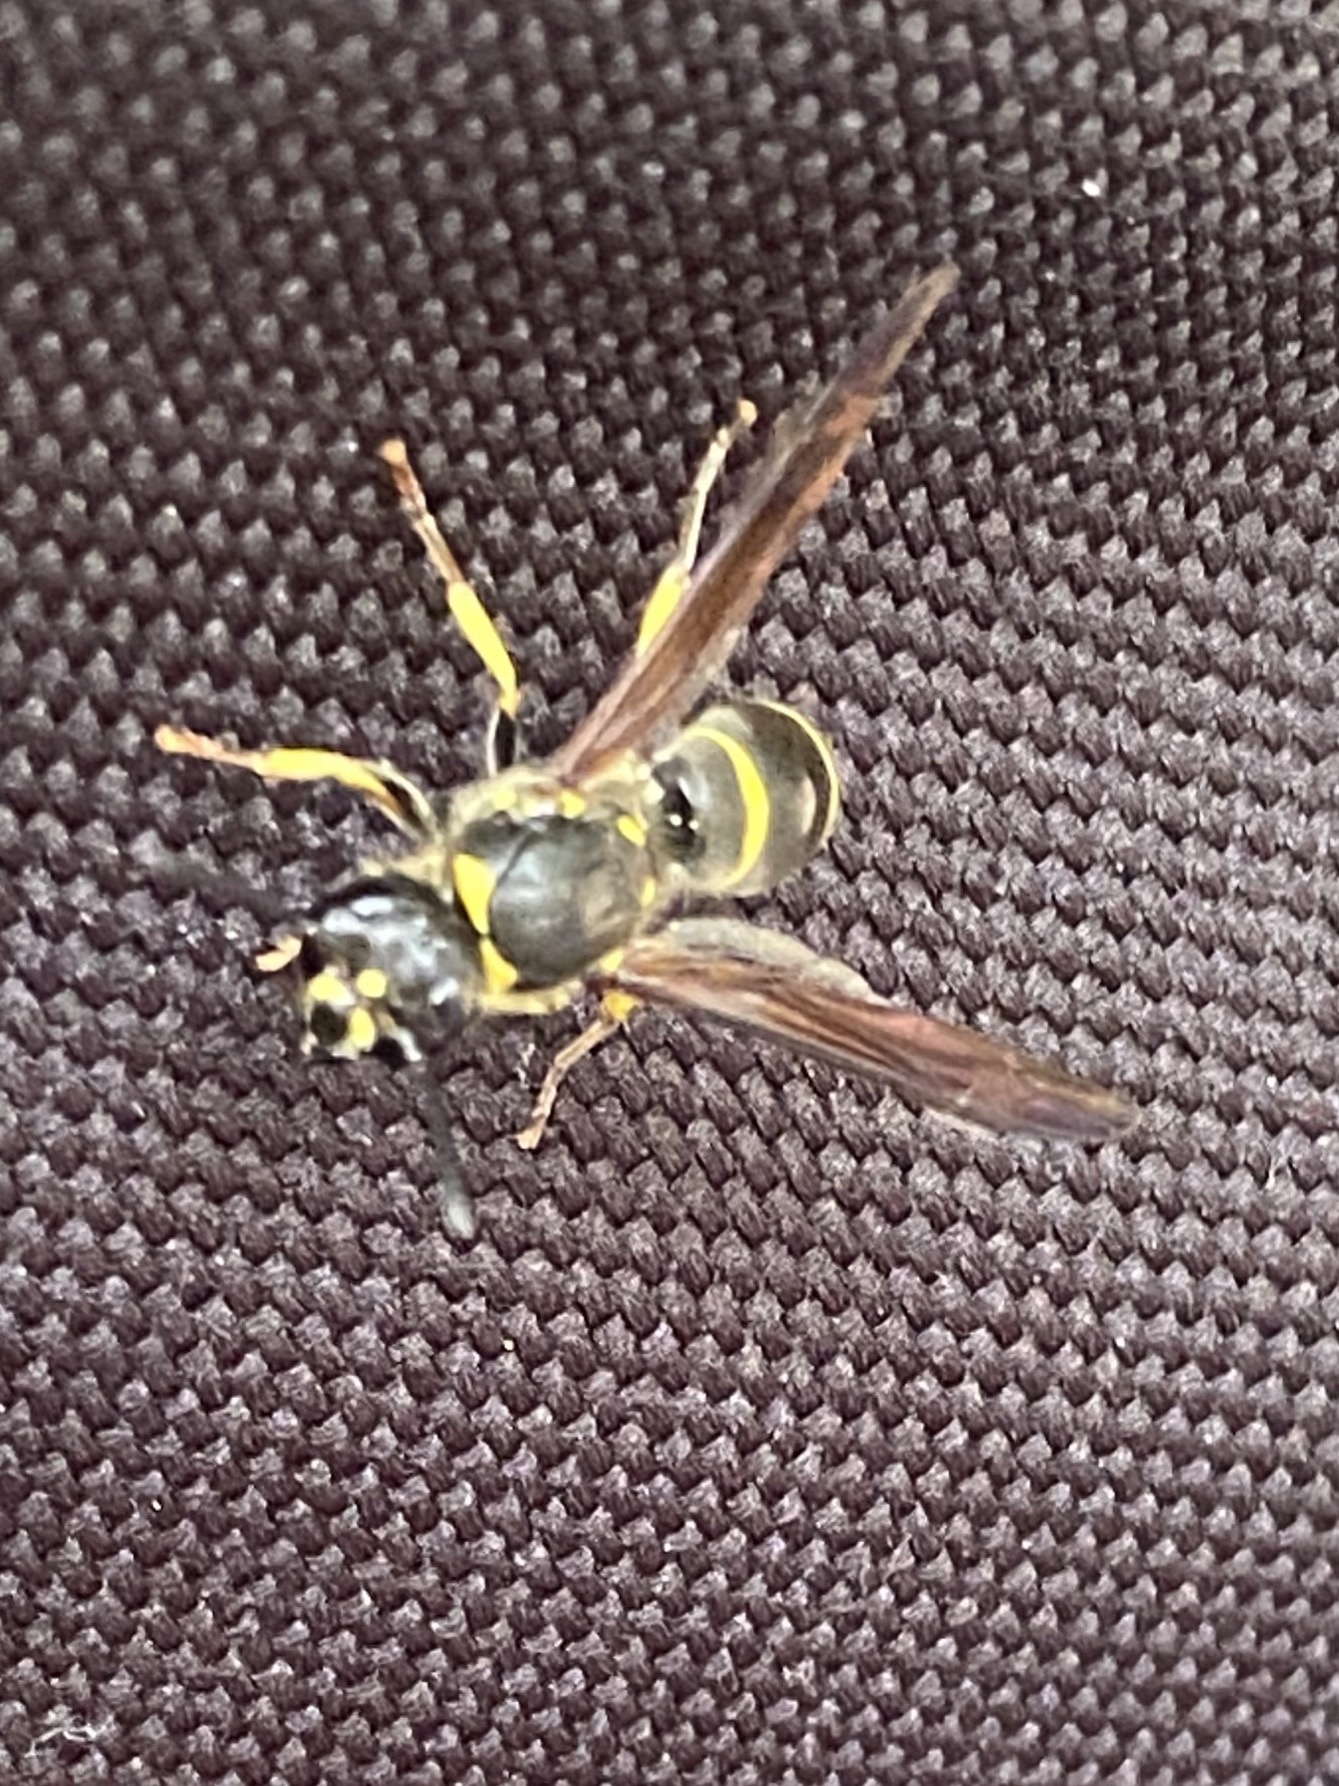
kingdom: Animalia
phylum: Arthropoda
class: Insecta
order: Hymenoptera
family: Vespidae
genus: Ancistrocerus
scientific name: Ancistrocerus
